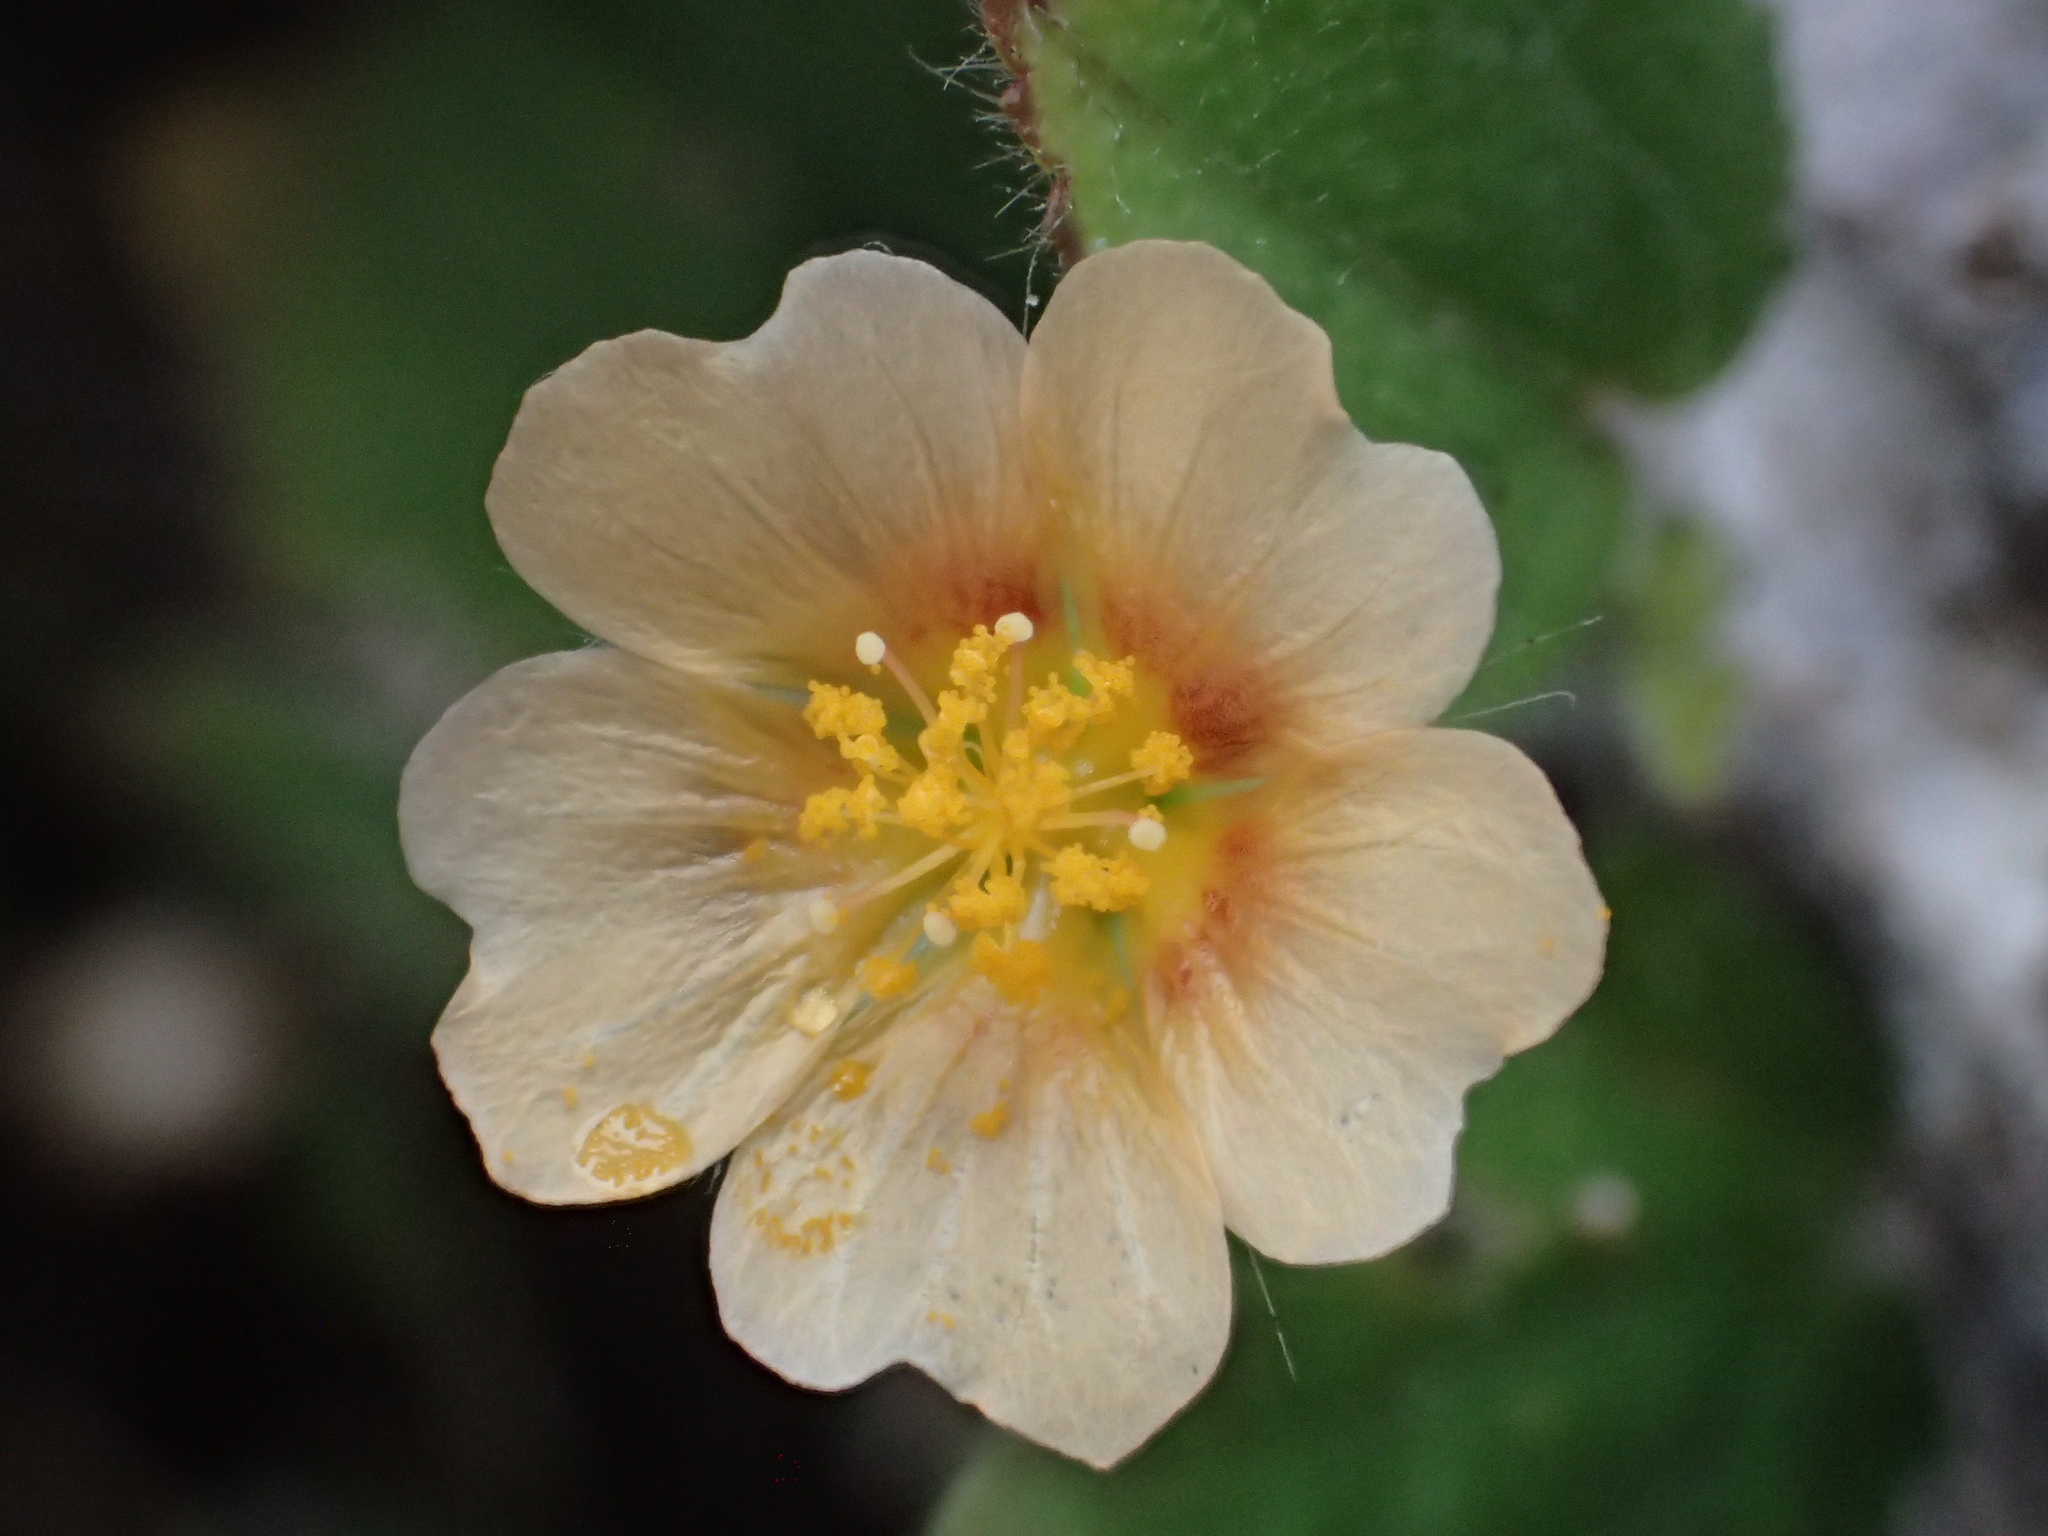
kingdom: Plantae
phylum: Tracheophyta
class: Magnoliopsida
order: Malvales
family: Malvaceae
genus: Sida
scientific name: Sida cordata
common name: Long-stalk sida
